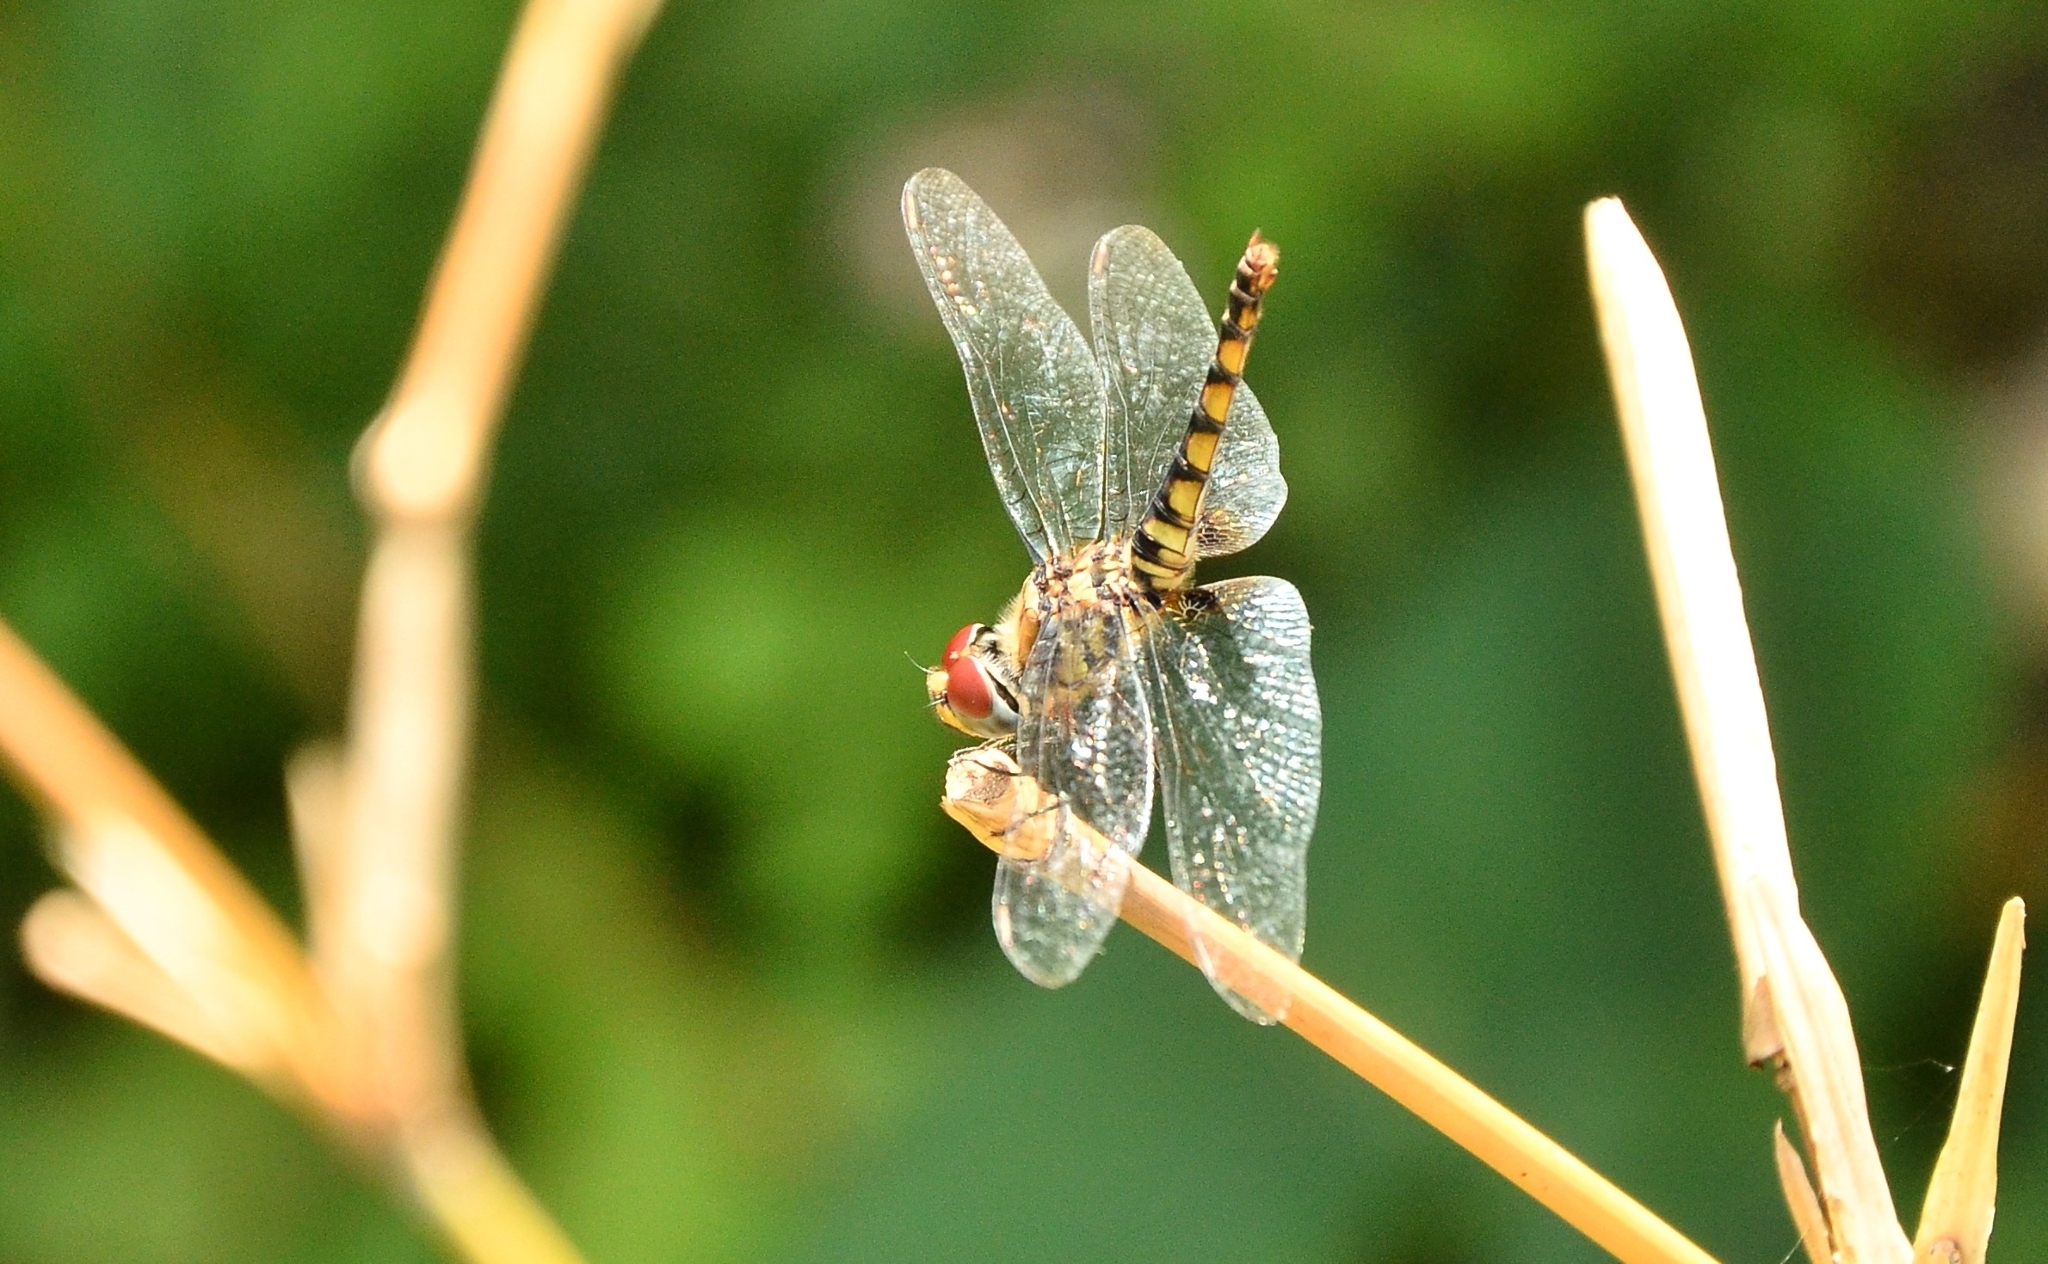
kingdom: Animalia
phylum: Arthropoda
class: Insecta
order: Odonata
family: Libellulidae
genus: Urothemis
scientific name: Urothemis signata
